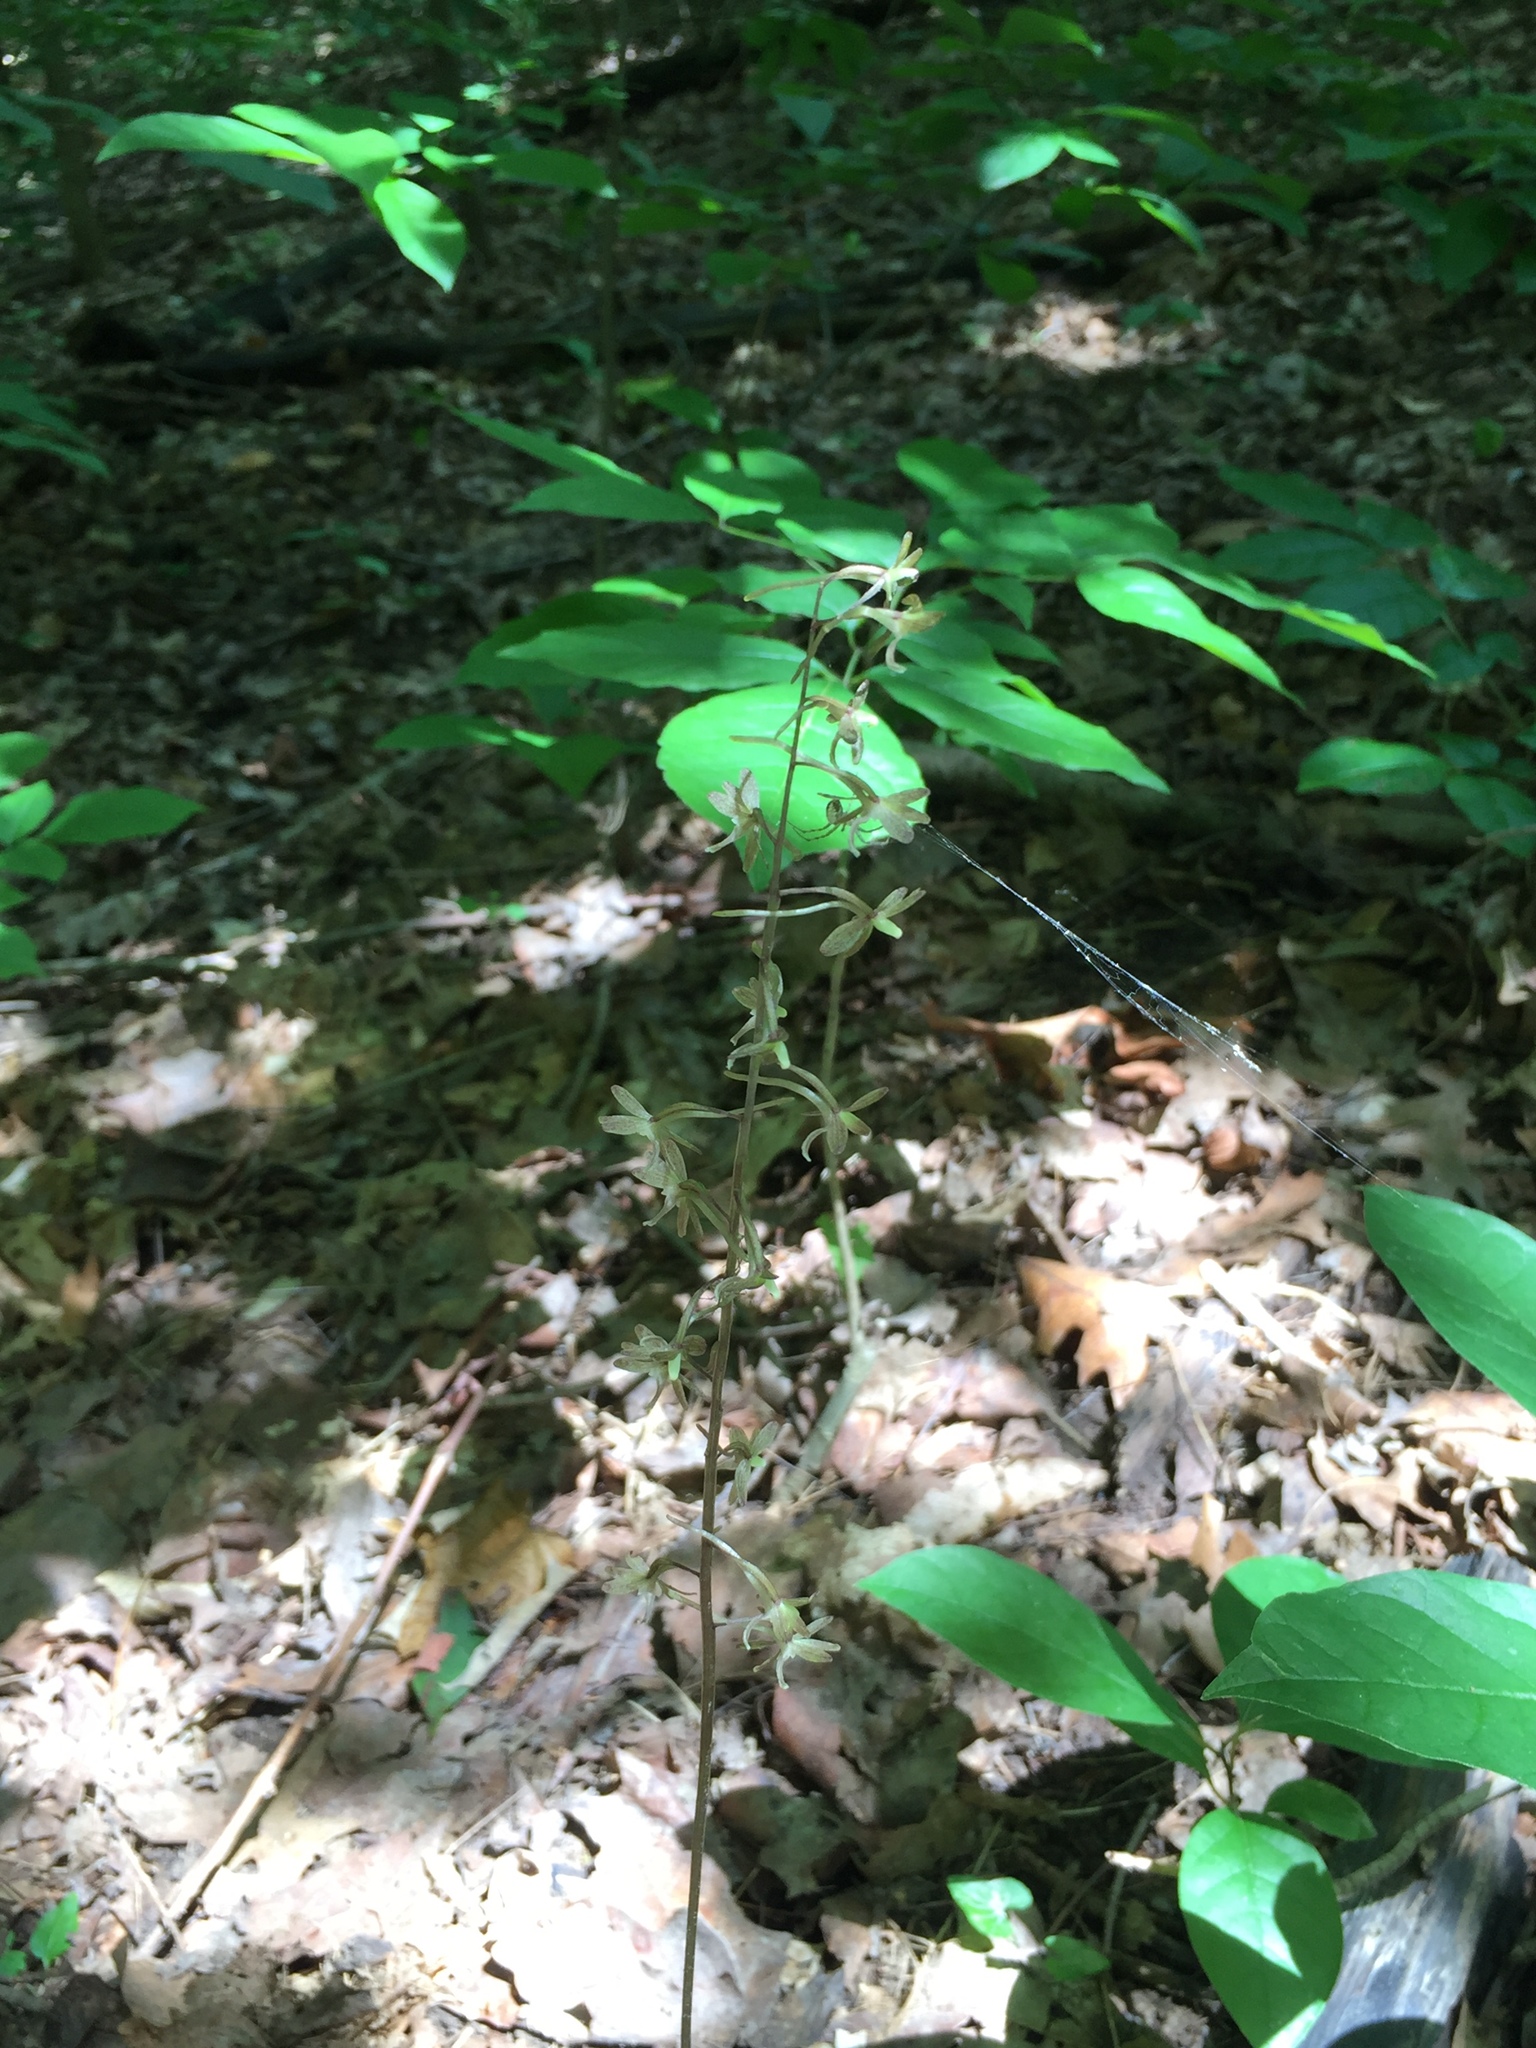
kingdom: Plantae
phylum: Tracheophyta
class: Liliopsida
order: Asparagales
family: Orchidaceae
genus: Tipularia
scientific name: Tipularia discolor
